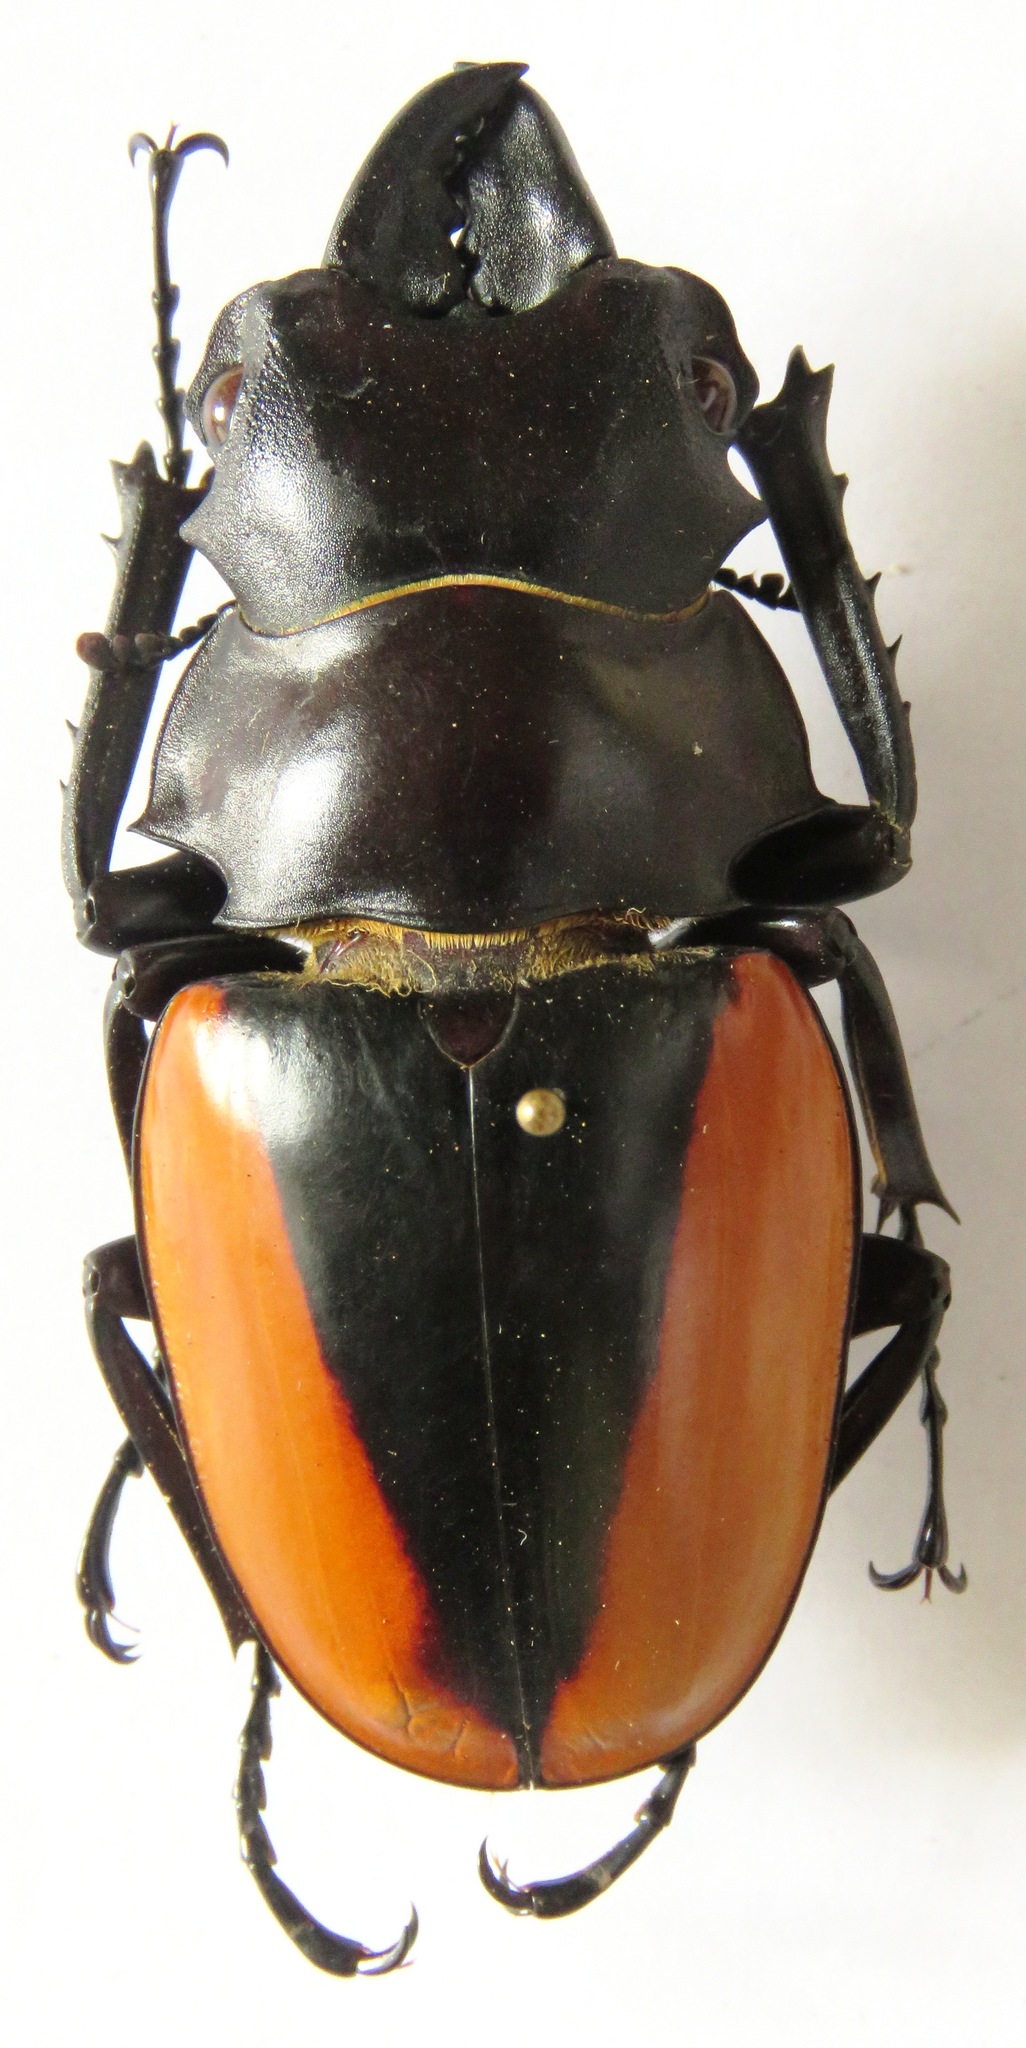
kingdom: Animalia
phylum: Arthropoda
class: Insecta
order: Coleoptera
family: Lucanidae
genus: Odontolabis
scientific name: Odontolabis cuvera
